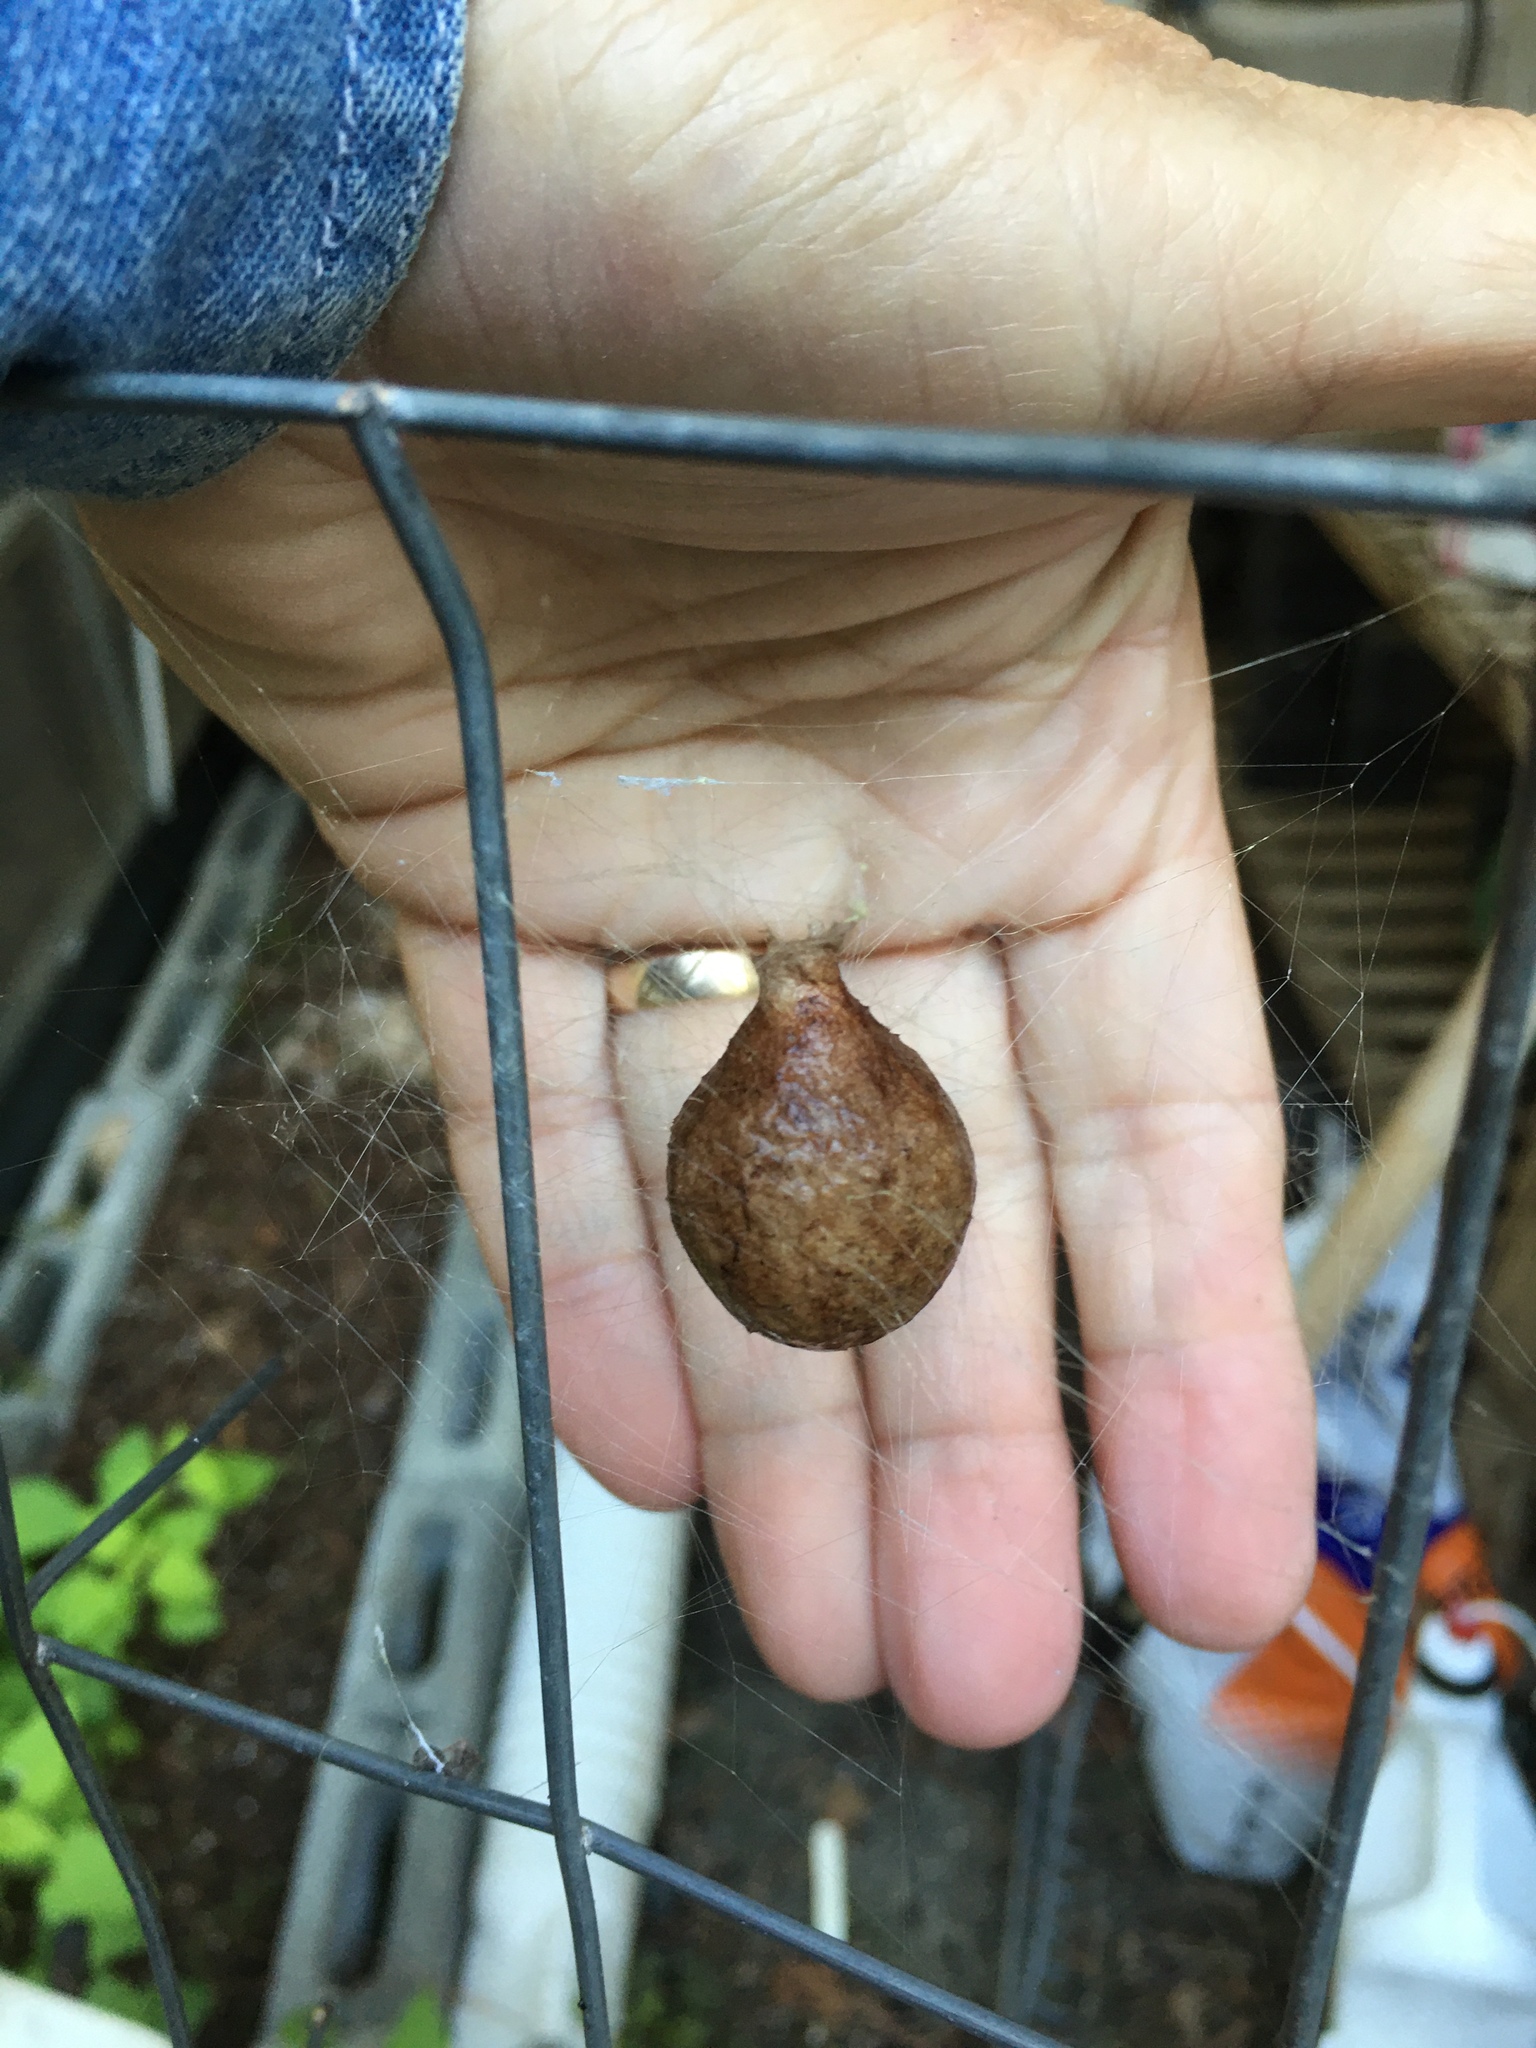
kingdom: Animalia
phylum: Arthropoda
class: Arachnida
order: Araneae
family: Araneidae
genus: Argiope
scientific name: Argiope aurantia
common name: Orb weavers
